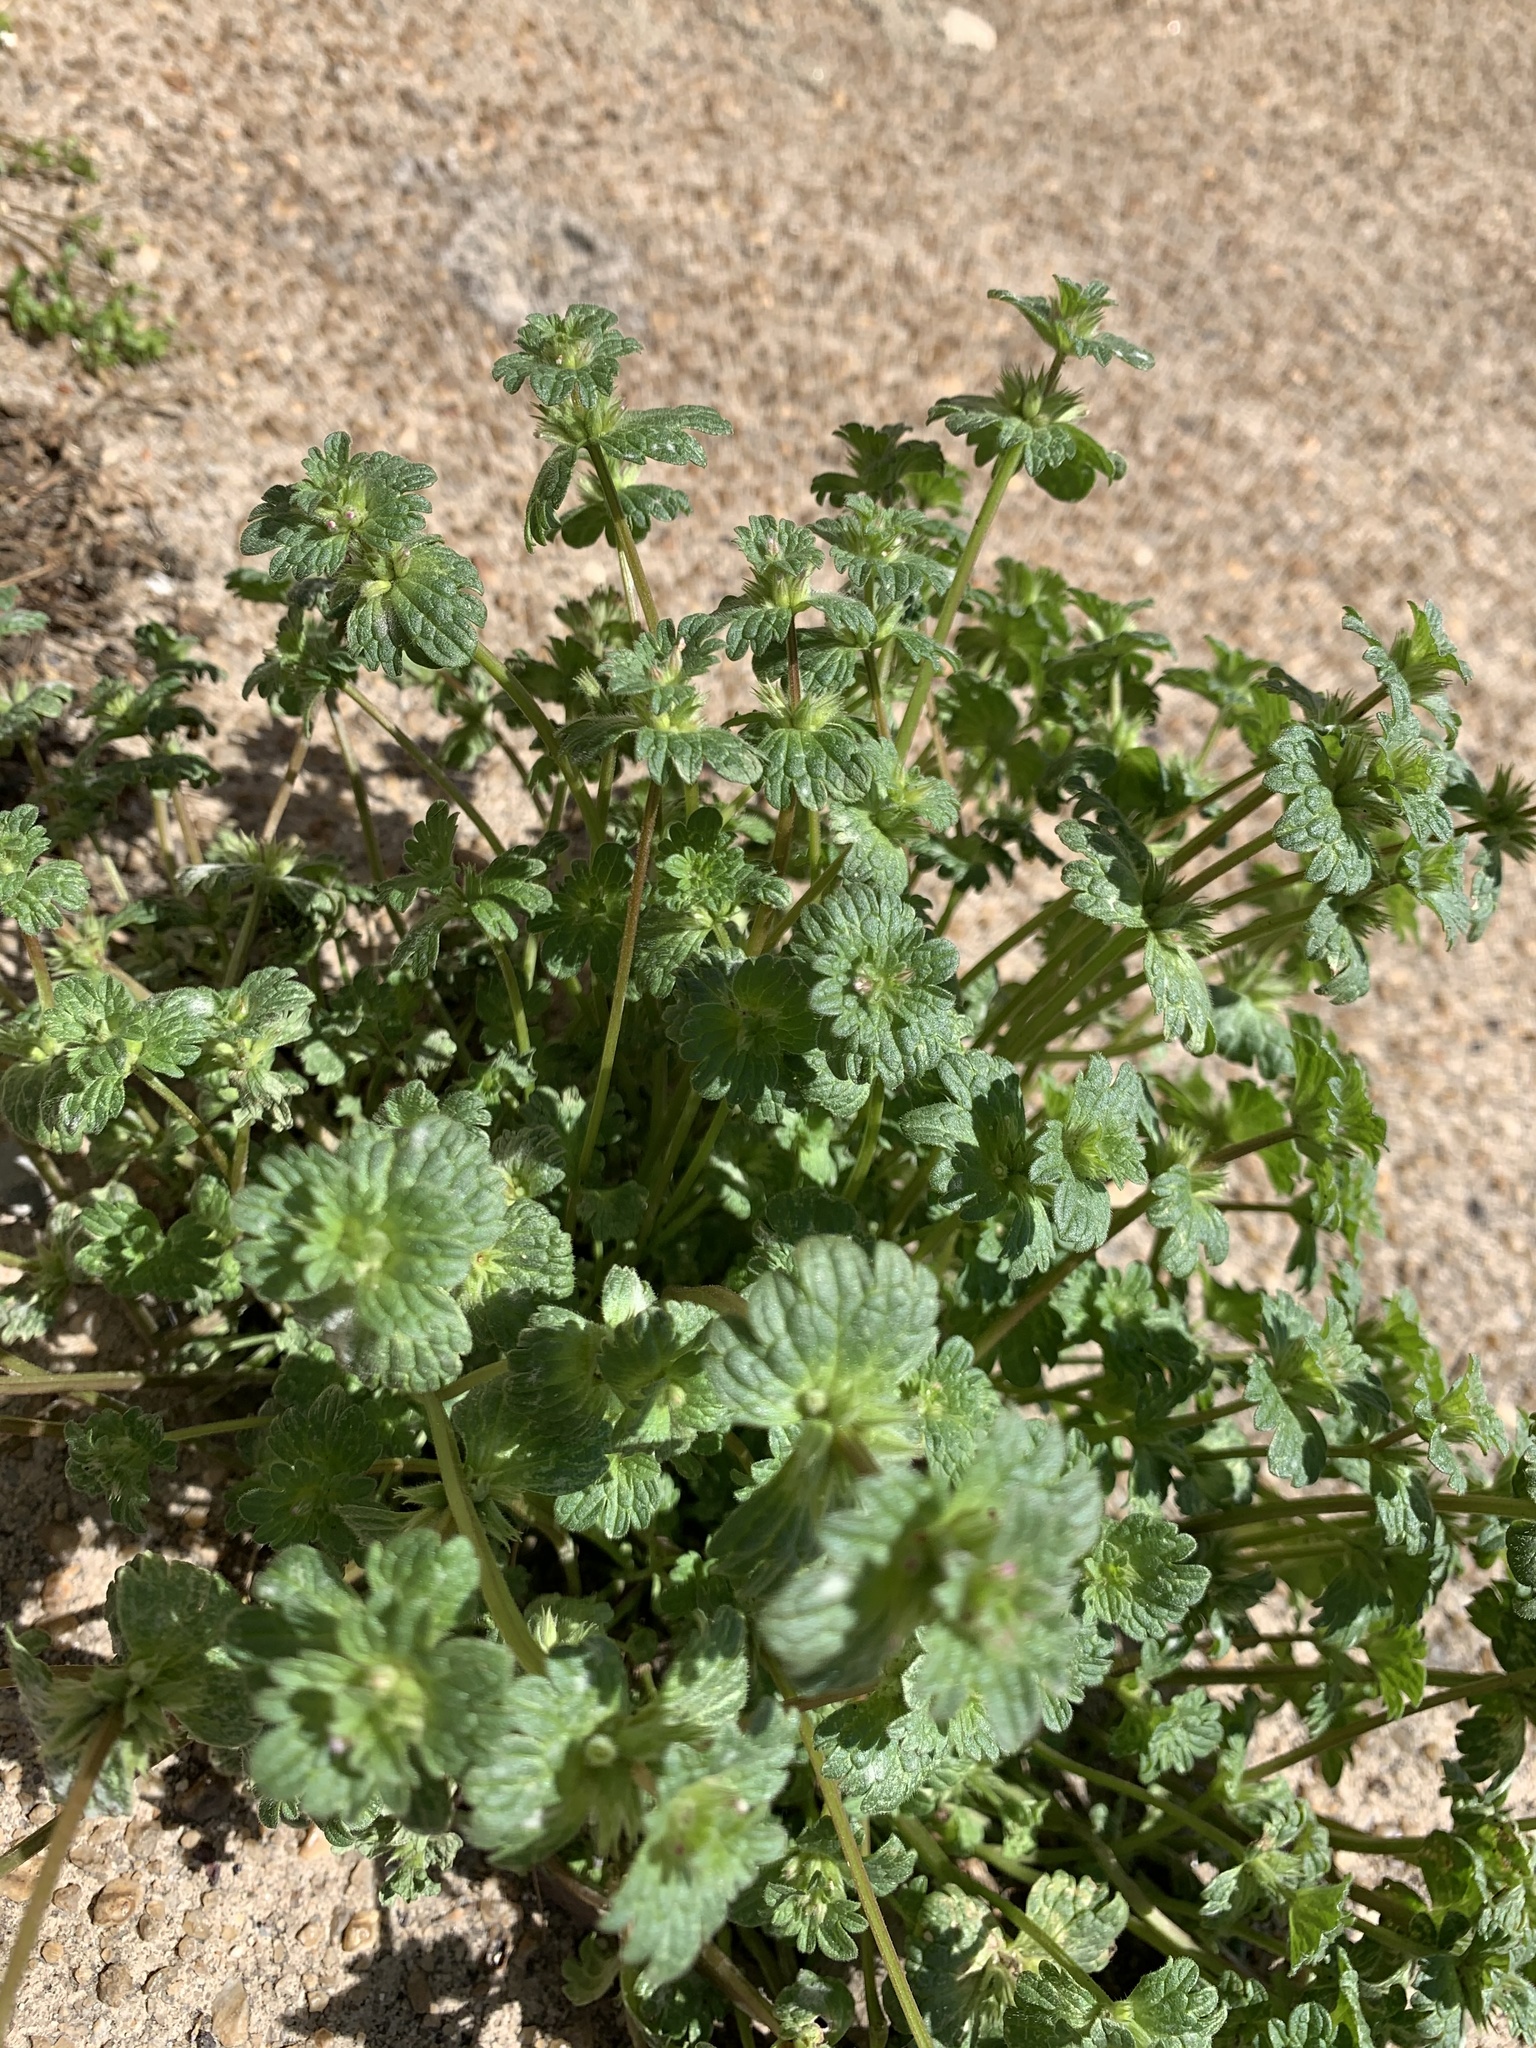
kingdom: Plantae
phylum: Tracheophyta
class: Magnoliopsida
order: Lamiales
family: Lamiaceae
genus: Lamium
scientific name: Lamium amplexicaule
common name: Henbit dead-nettle
